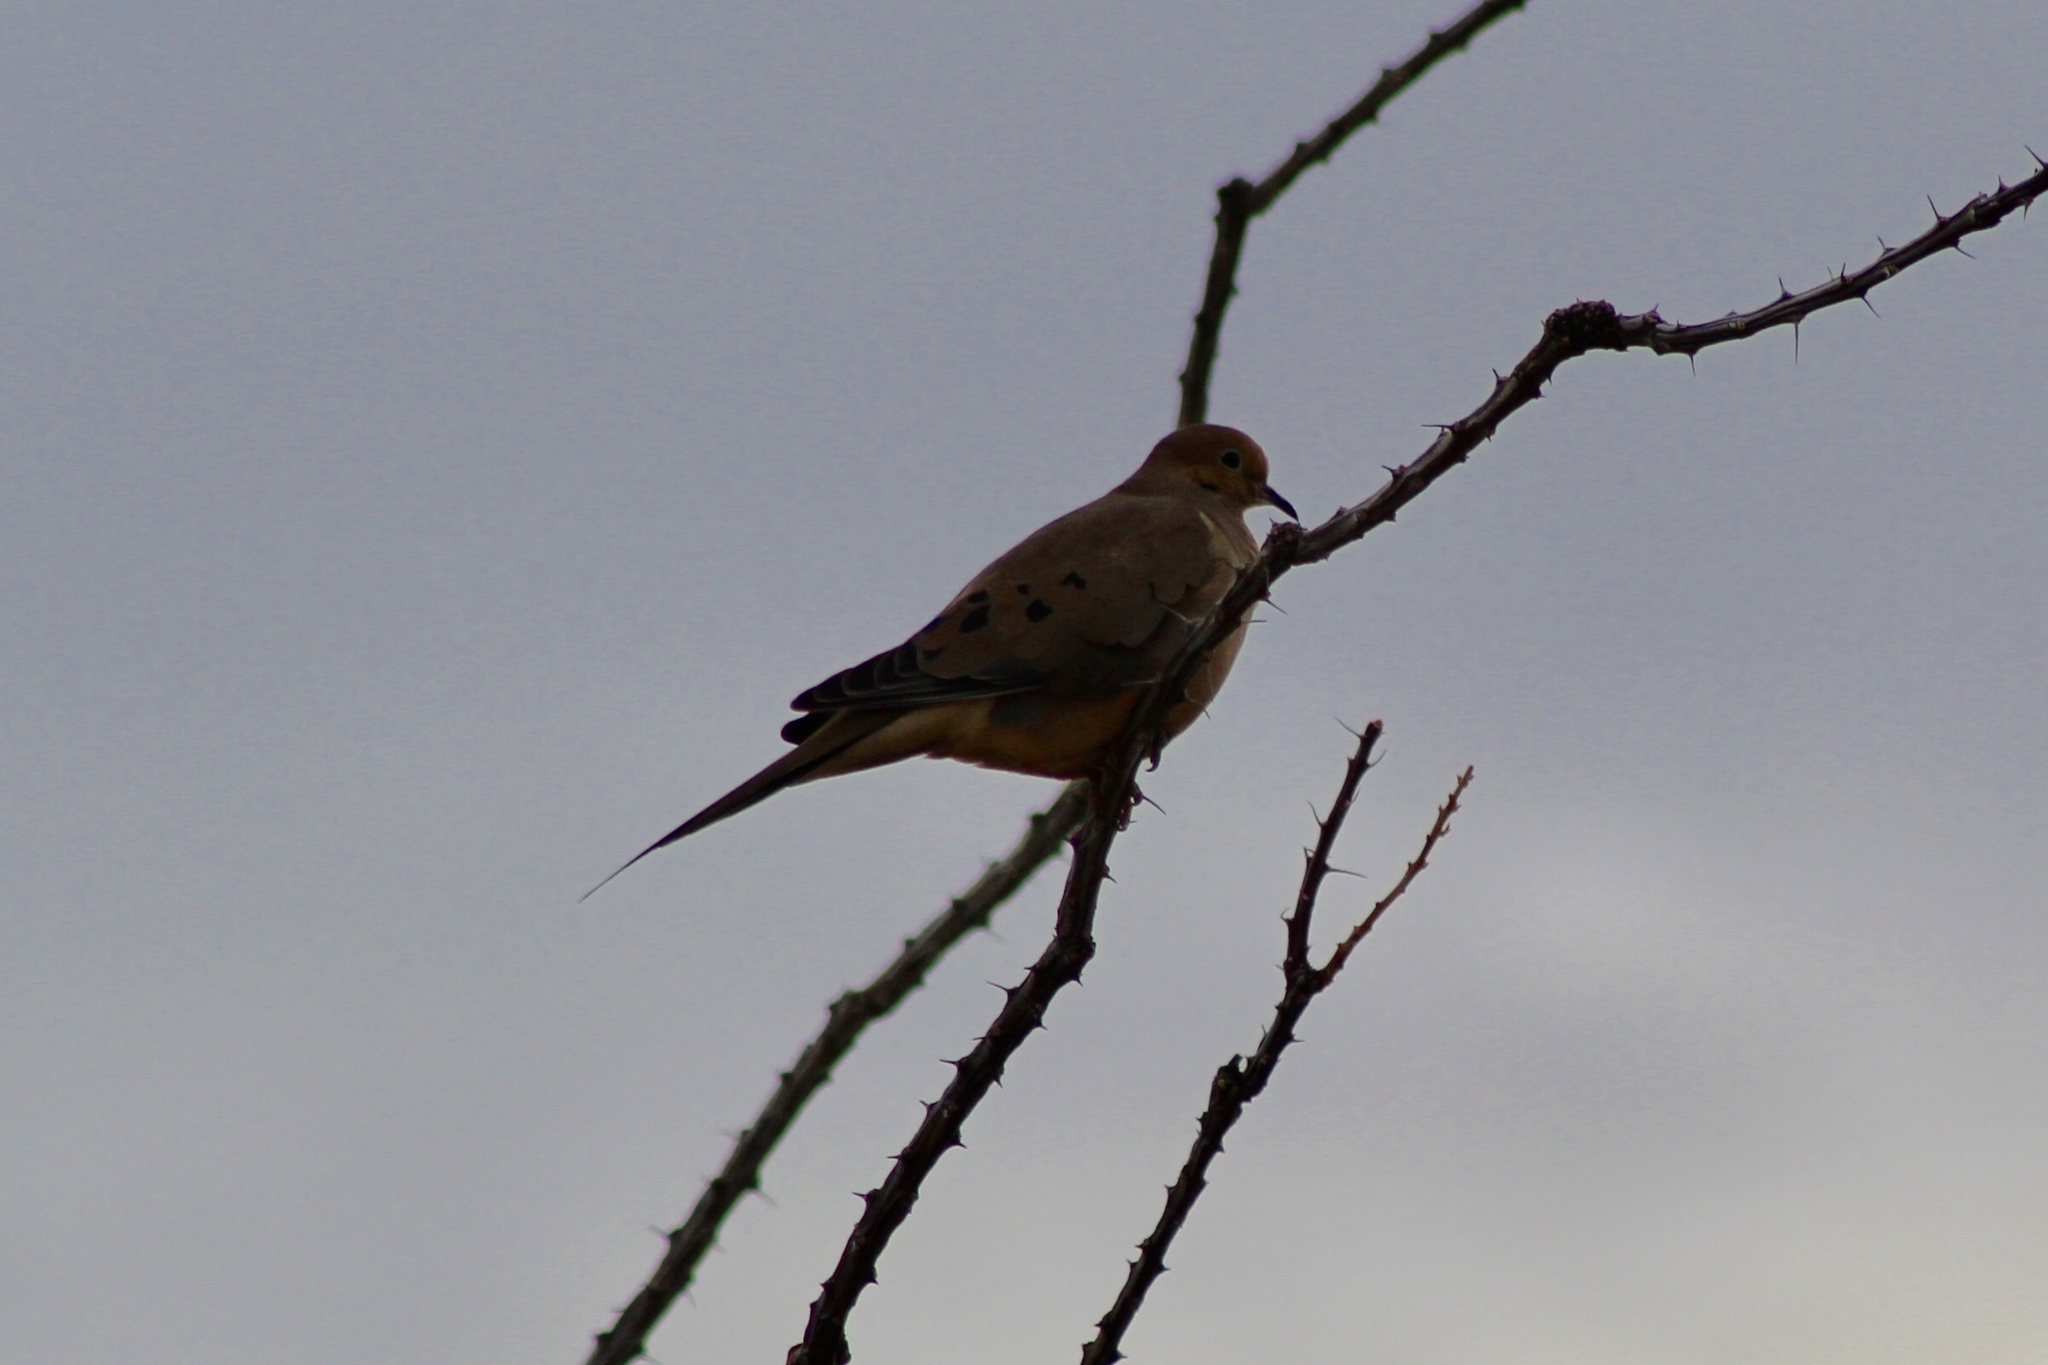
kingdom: Animalia
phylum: Chordata
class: Aves
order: Columbiformes
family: Columbidae
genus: Zenaida
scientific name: Zenaida macroura
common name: Mourning dove
